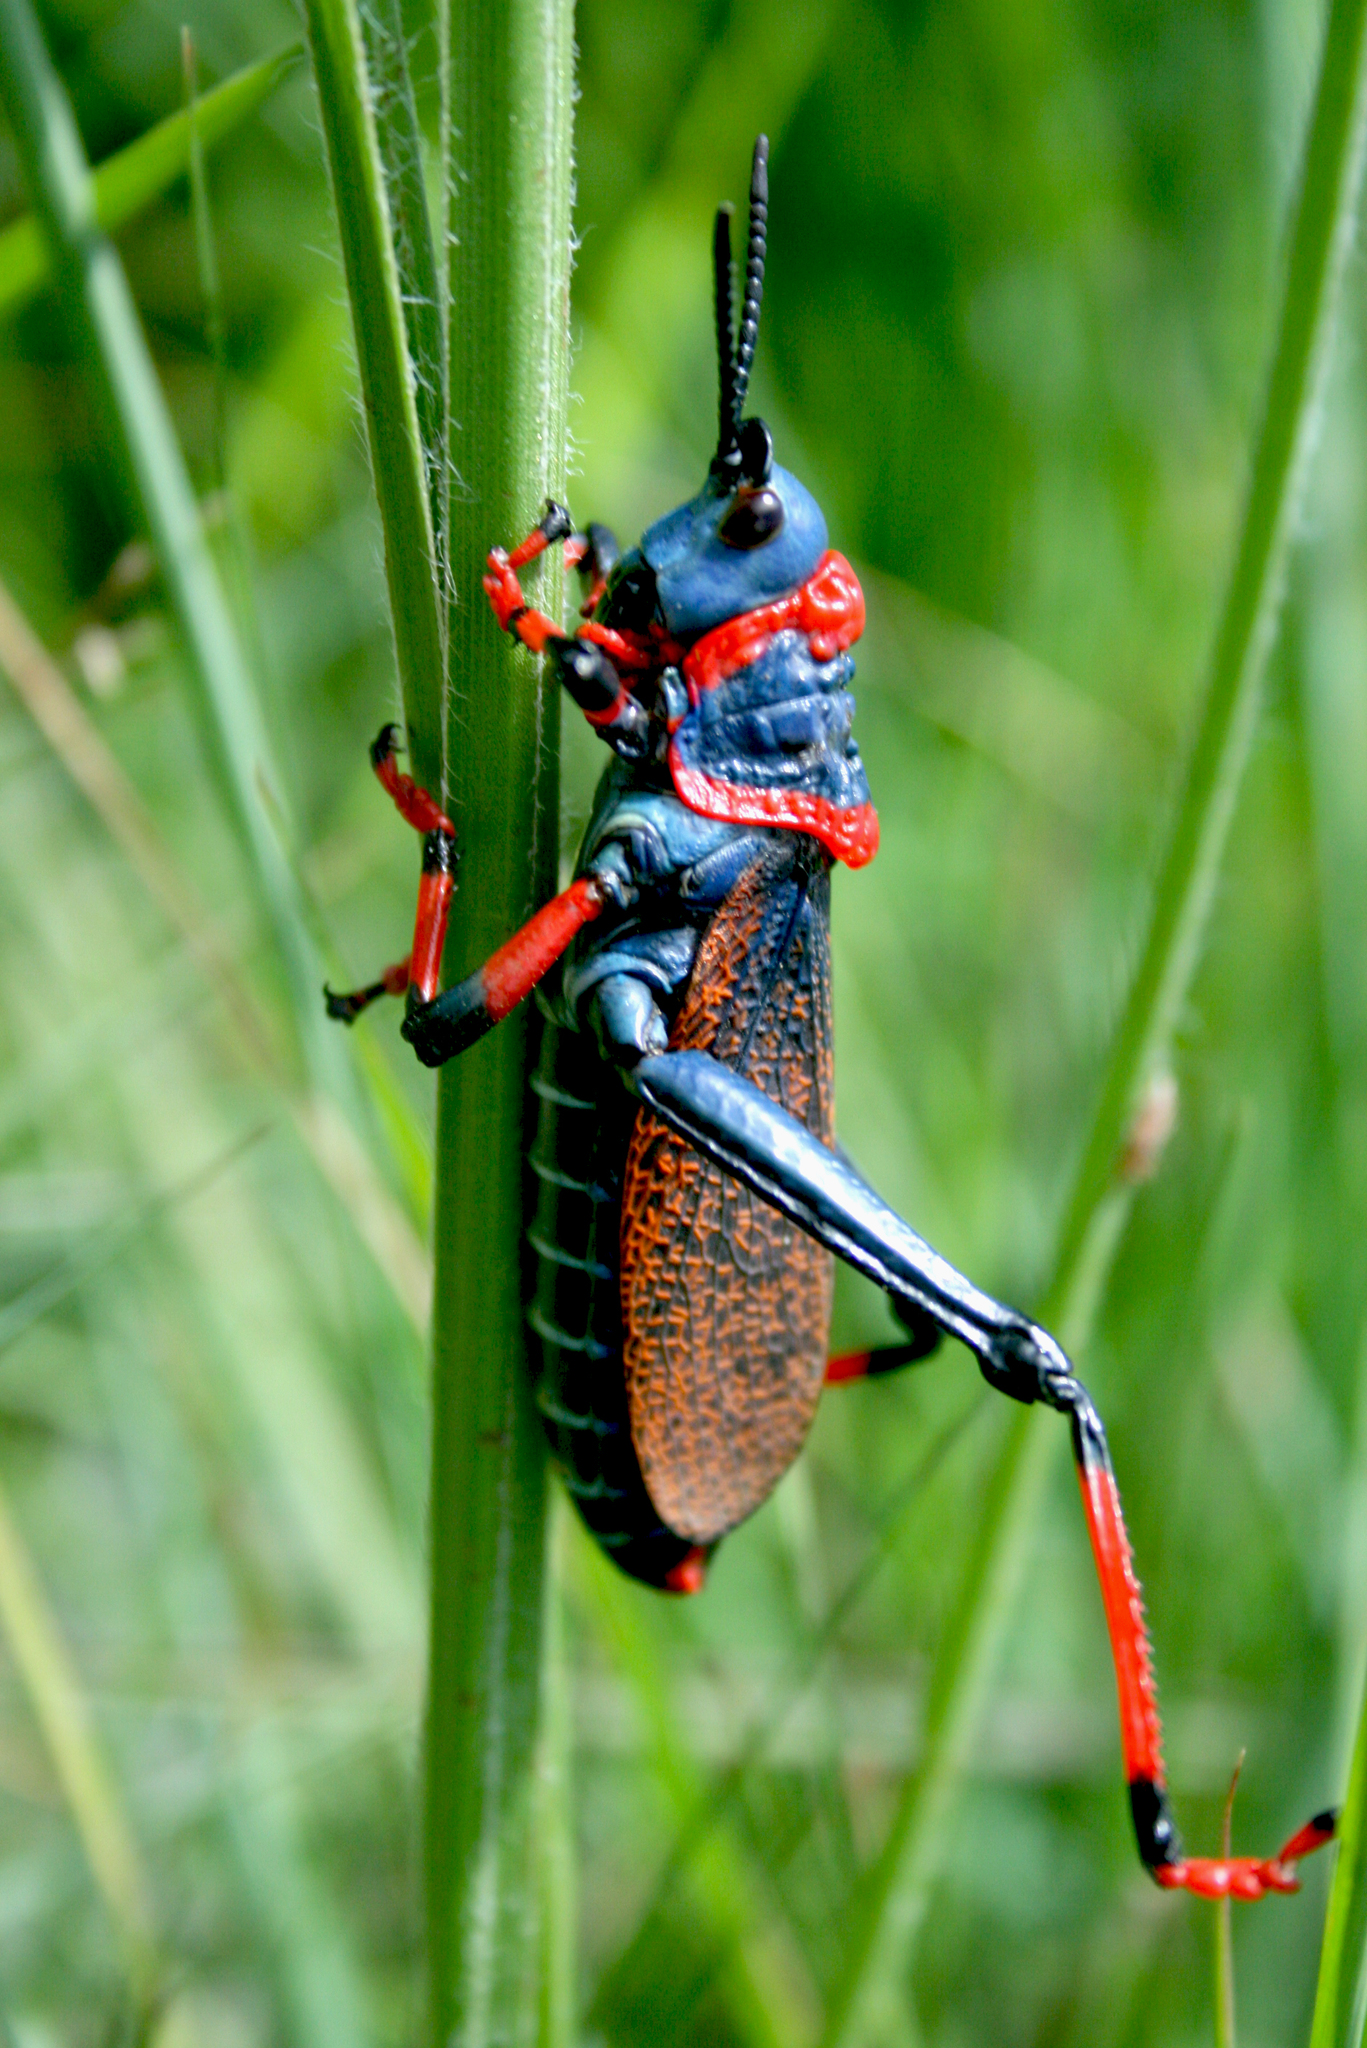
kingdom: Animalia
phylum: Arthropoda
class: Insecta
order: Orthoptera
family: Pyrgomorphidae
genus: Dictyophorus
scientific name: Dictyophorus spumans
